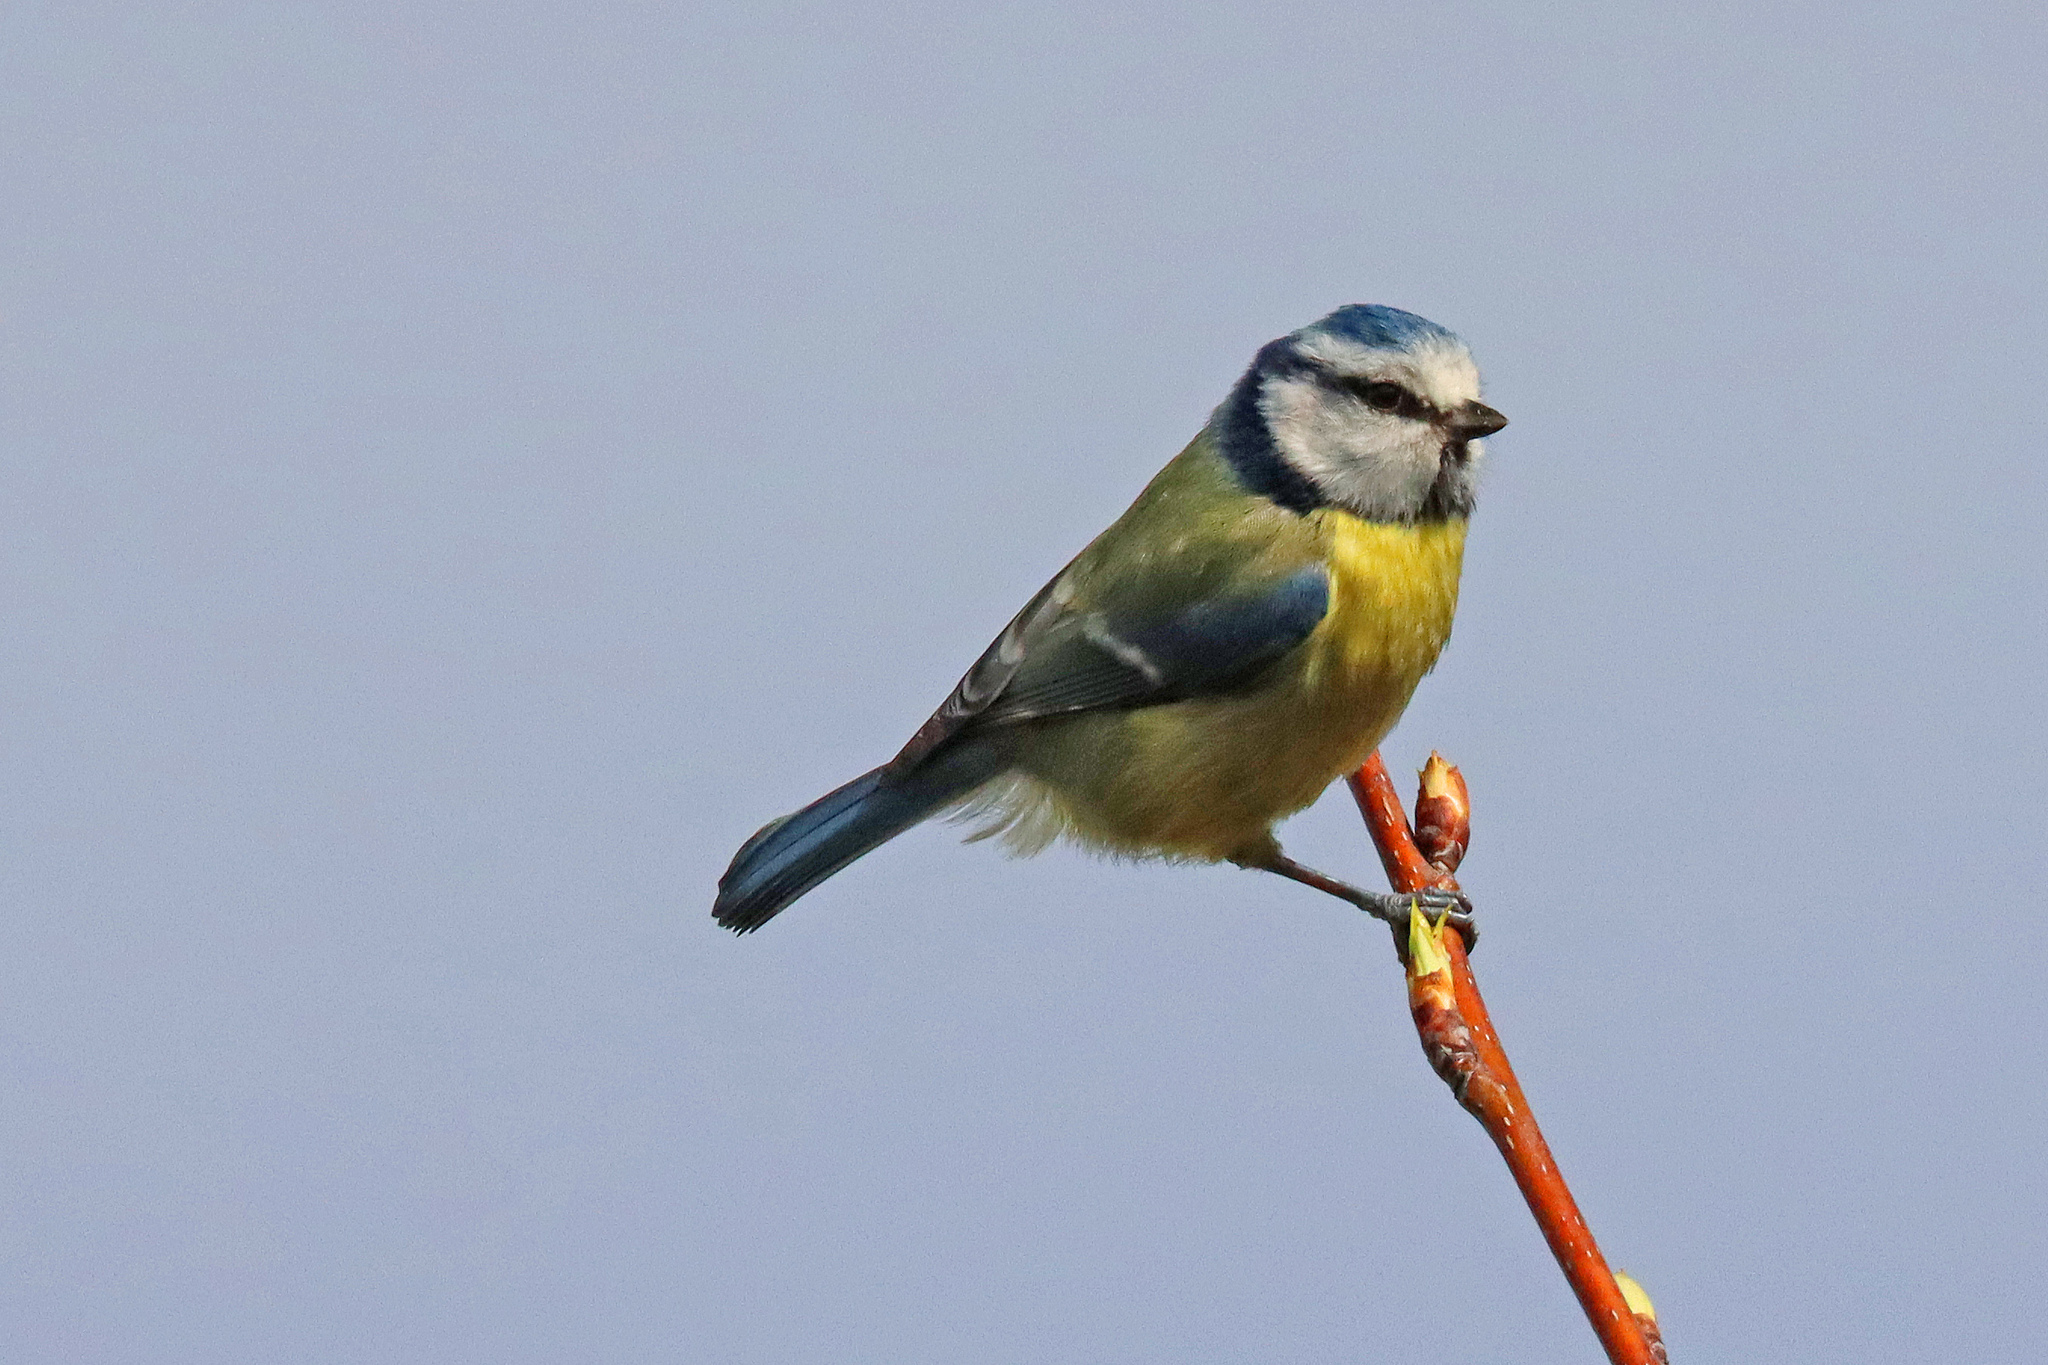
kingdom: Animalia
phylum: Chordata
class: Aves
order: Passeriformes
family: Paridae
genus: Cyanistes
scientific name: Cyanistes caeruleus
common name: Eurasian blue tit
